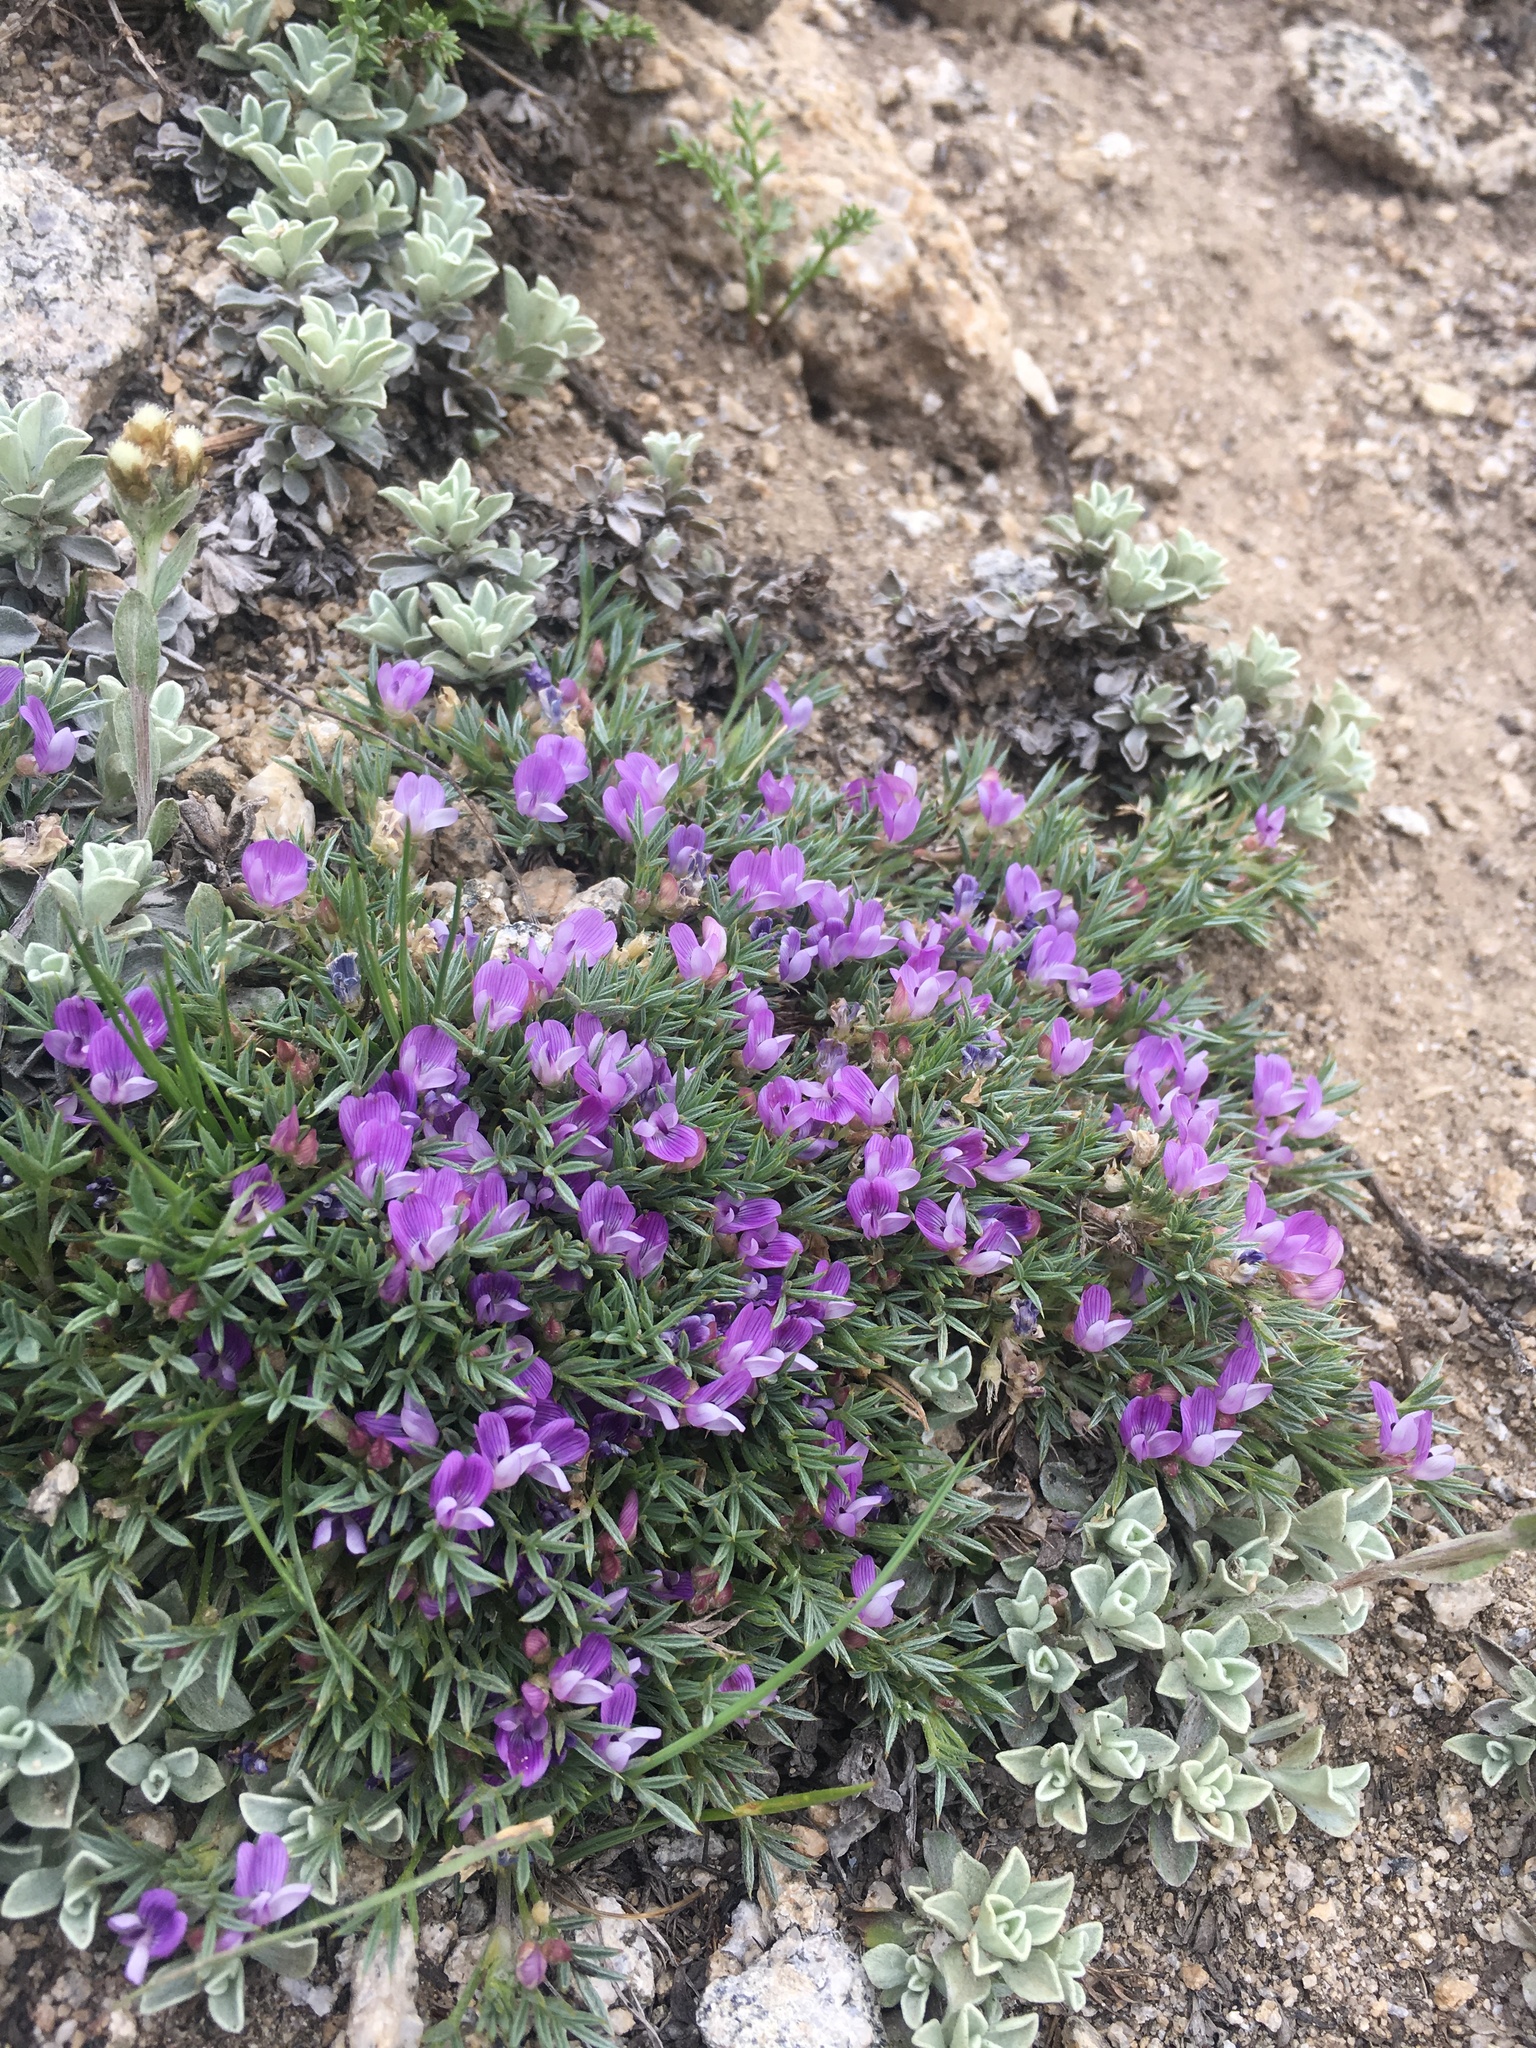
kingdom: Plantae
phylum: Tracheophyta
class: Magnoliopsida
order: Fabales
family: Fabaceae
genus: Astragalus
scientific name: Astragalus kentrophyta
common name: Prickly milk-vetch
